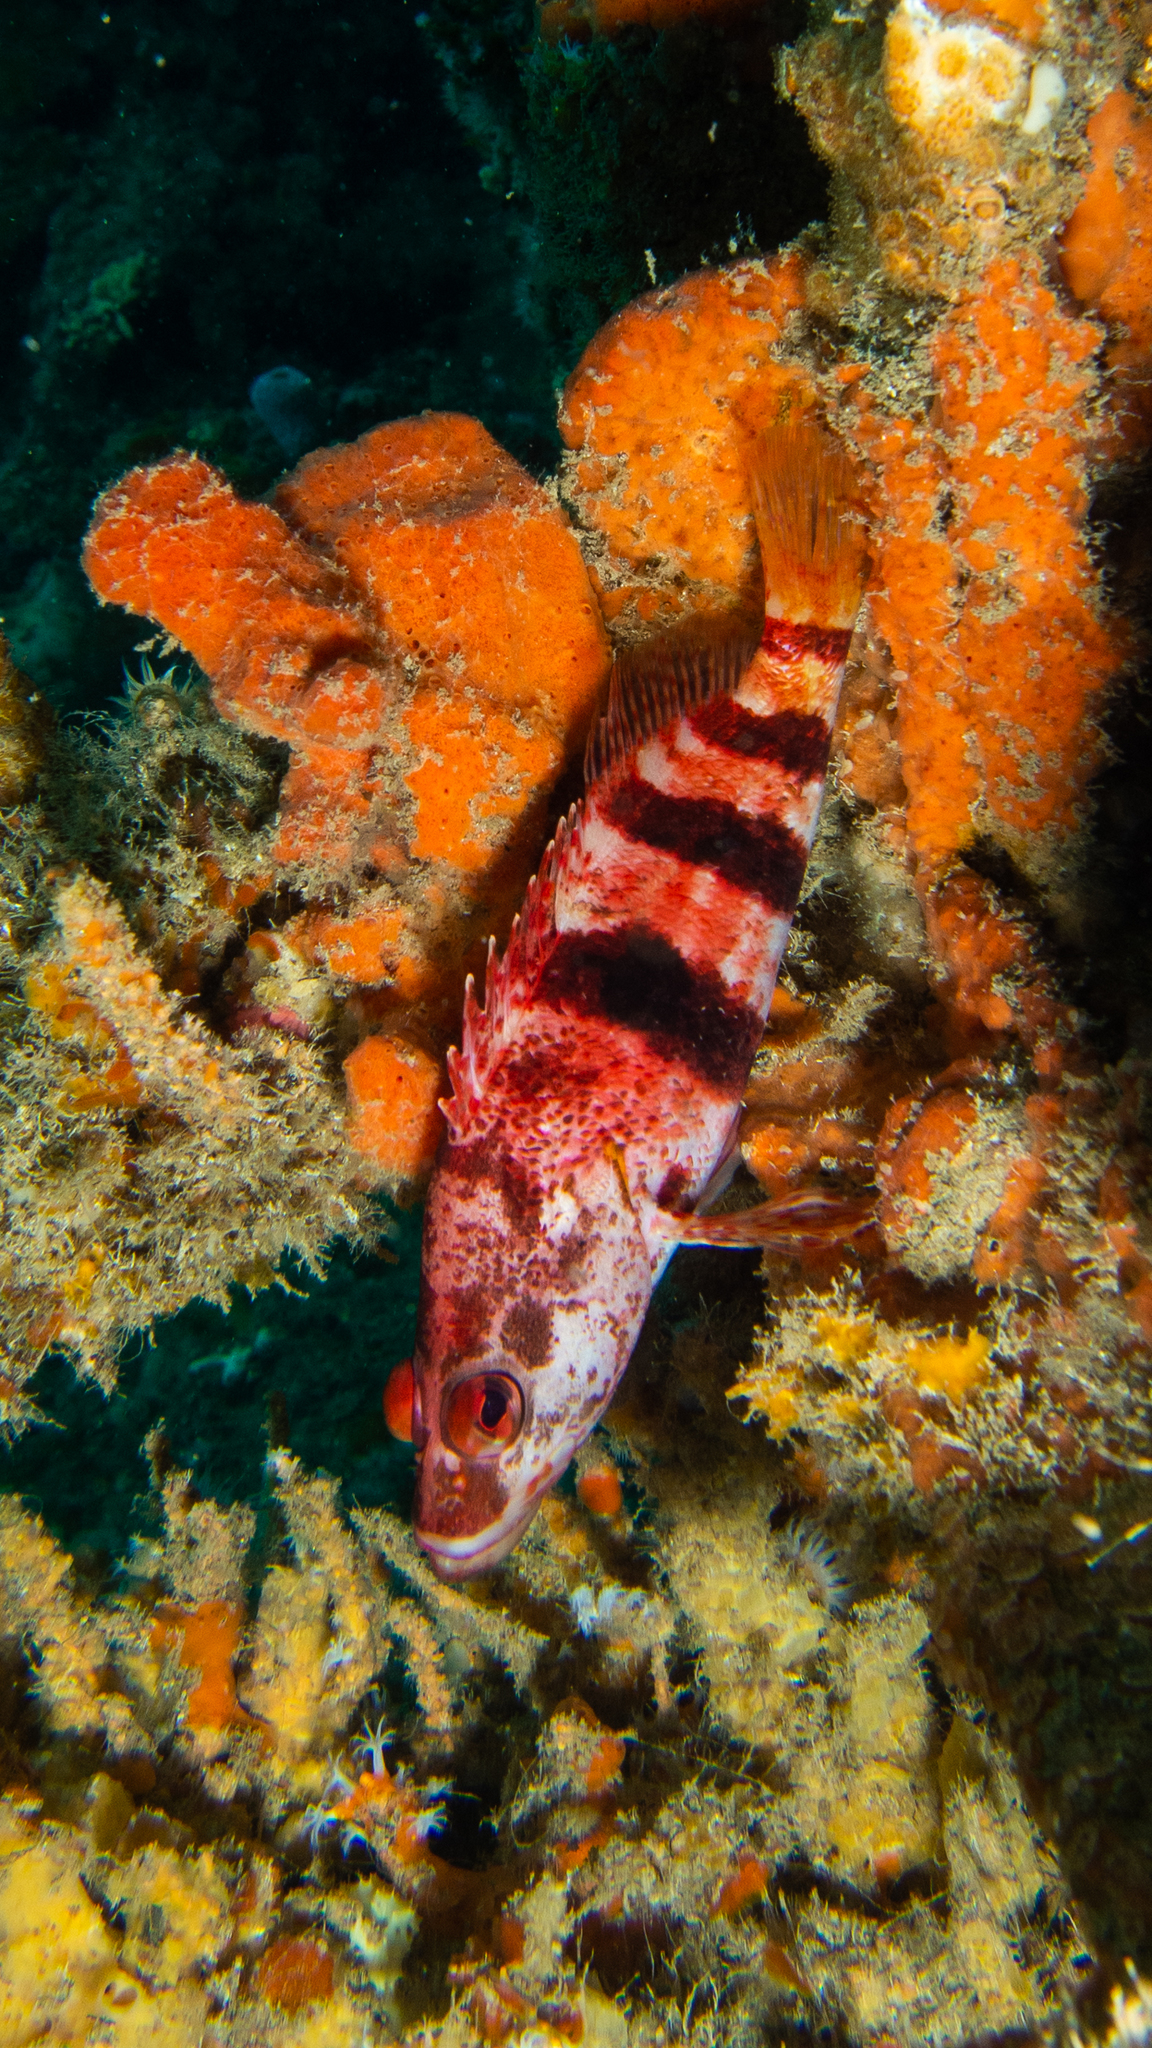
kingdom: Animalia
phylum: Chordata
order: Perciformes
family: Serranidae
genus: Hypoplectrodes
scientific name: Hypoplectrodes nigroruber
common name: Banded seaperch
